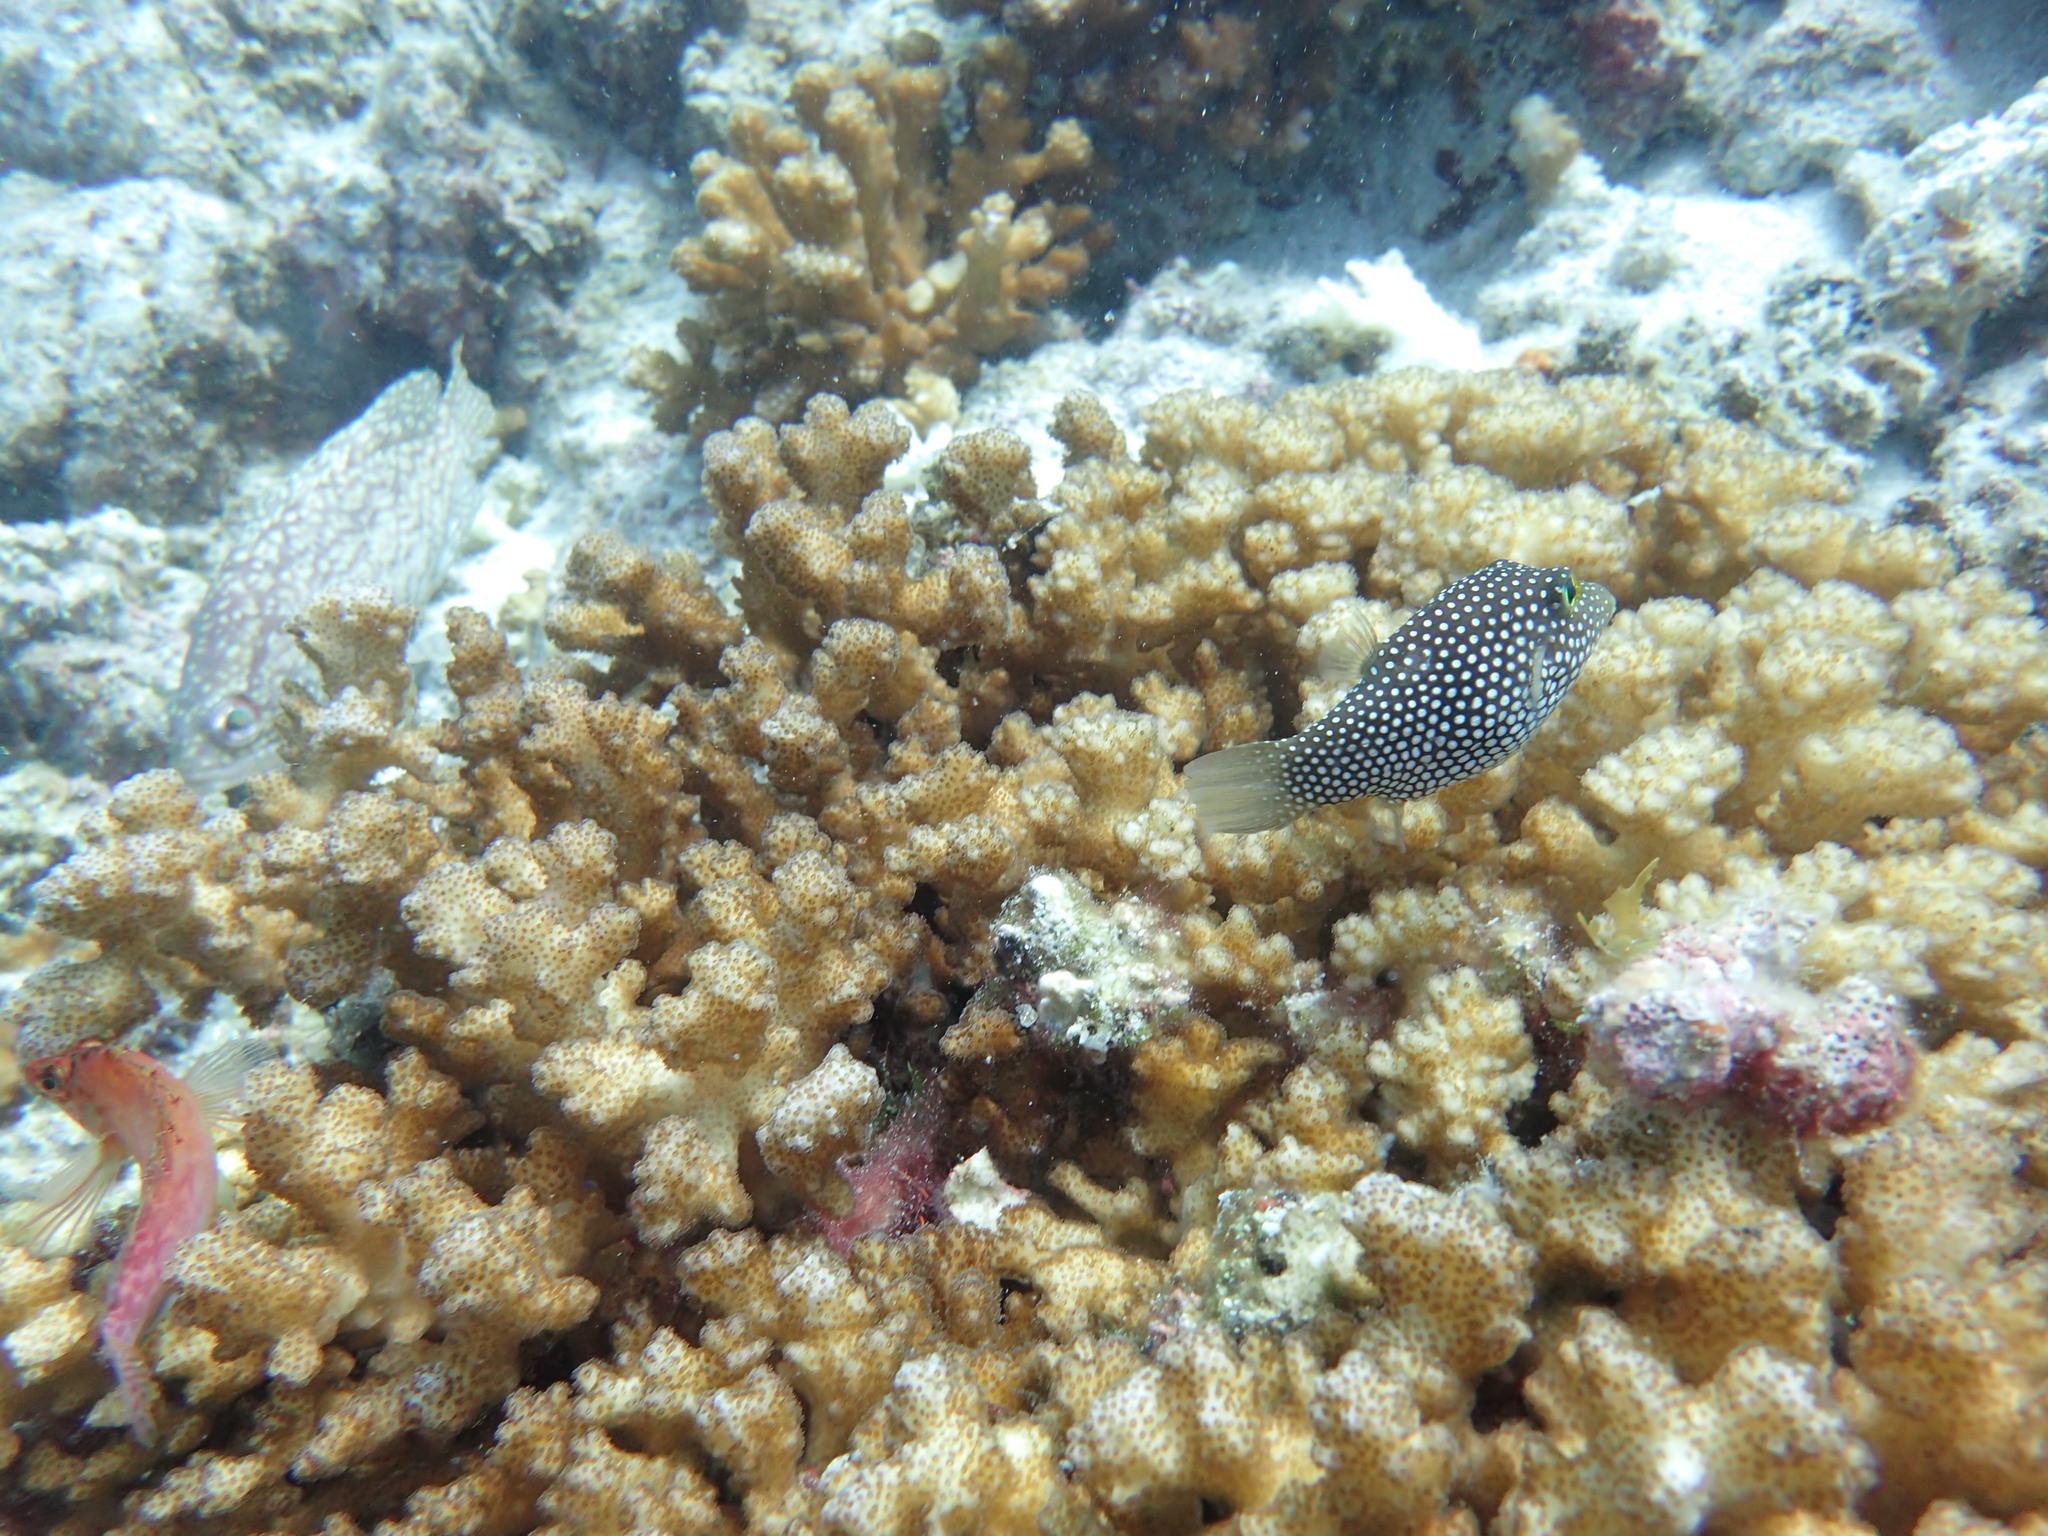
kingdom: Animalia
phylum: Chordata
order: Tetraodontiformes
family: Tetraodontidae
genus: Canthigaster
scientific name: Canthigaster punctatissima
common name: Spotted sharpnose puffer
